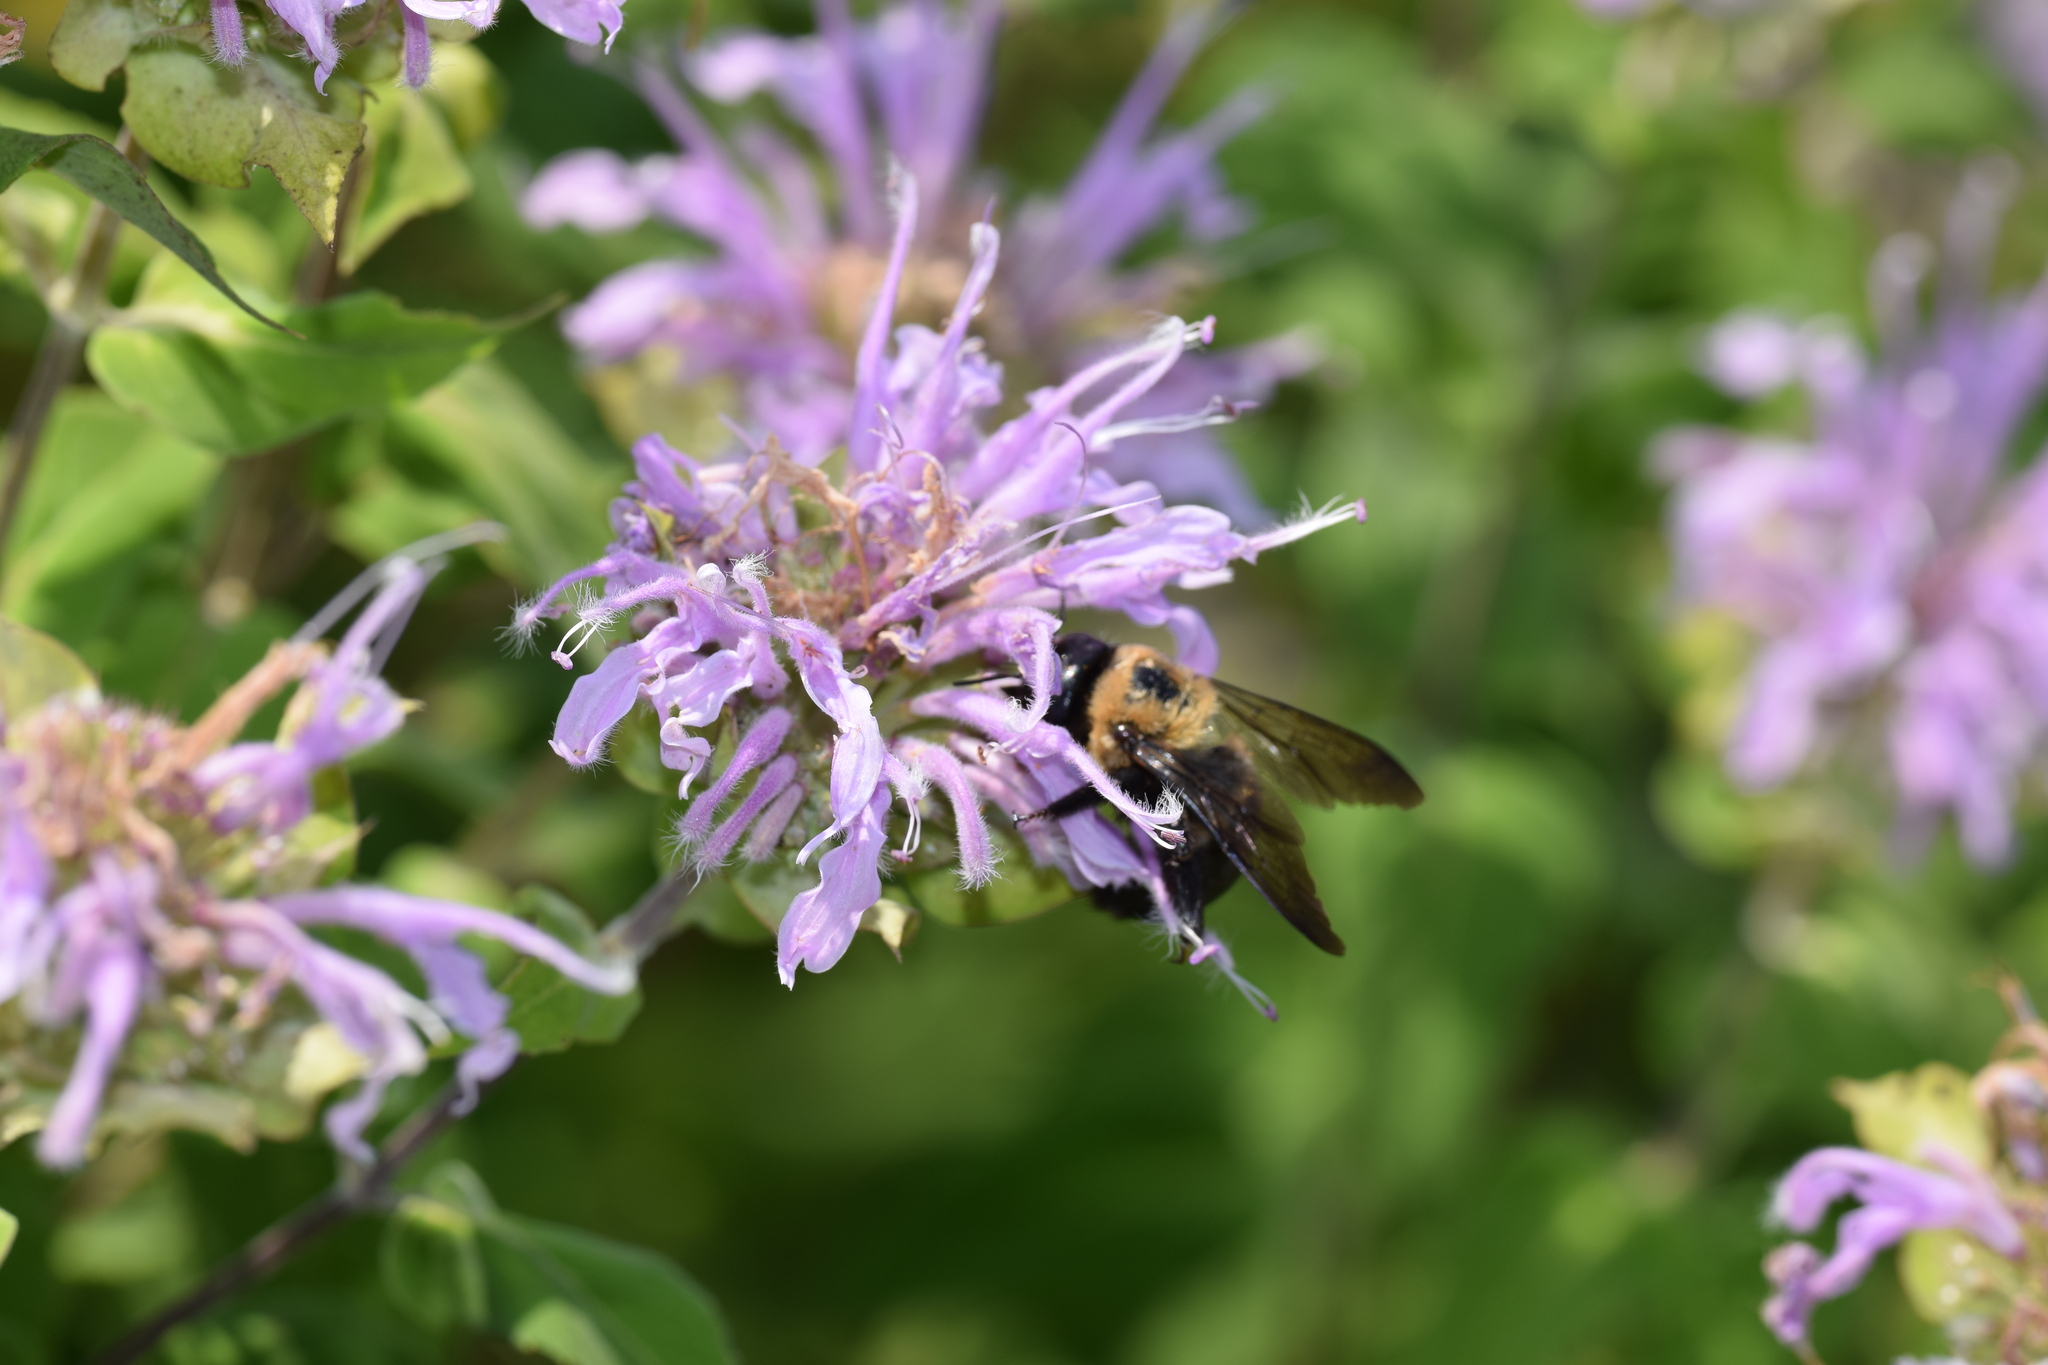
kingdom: Animalia
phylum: Arthropoda
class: Insecta
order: Hymenoptera
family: Apidae
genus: Xylocopa
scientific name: Xylocopa virginica
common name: Carpenter bee
